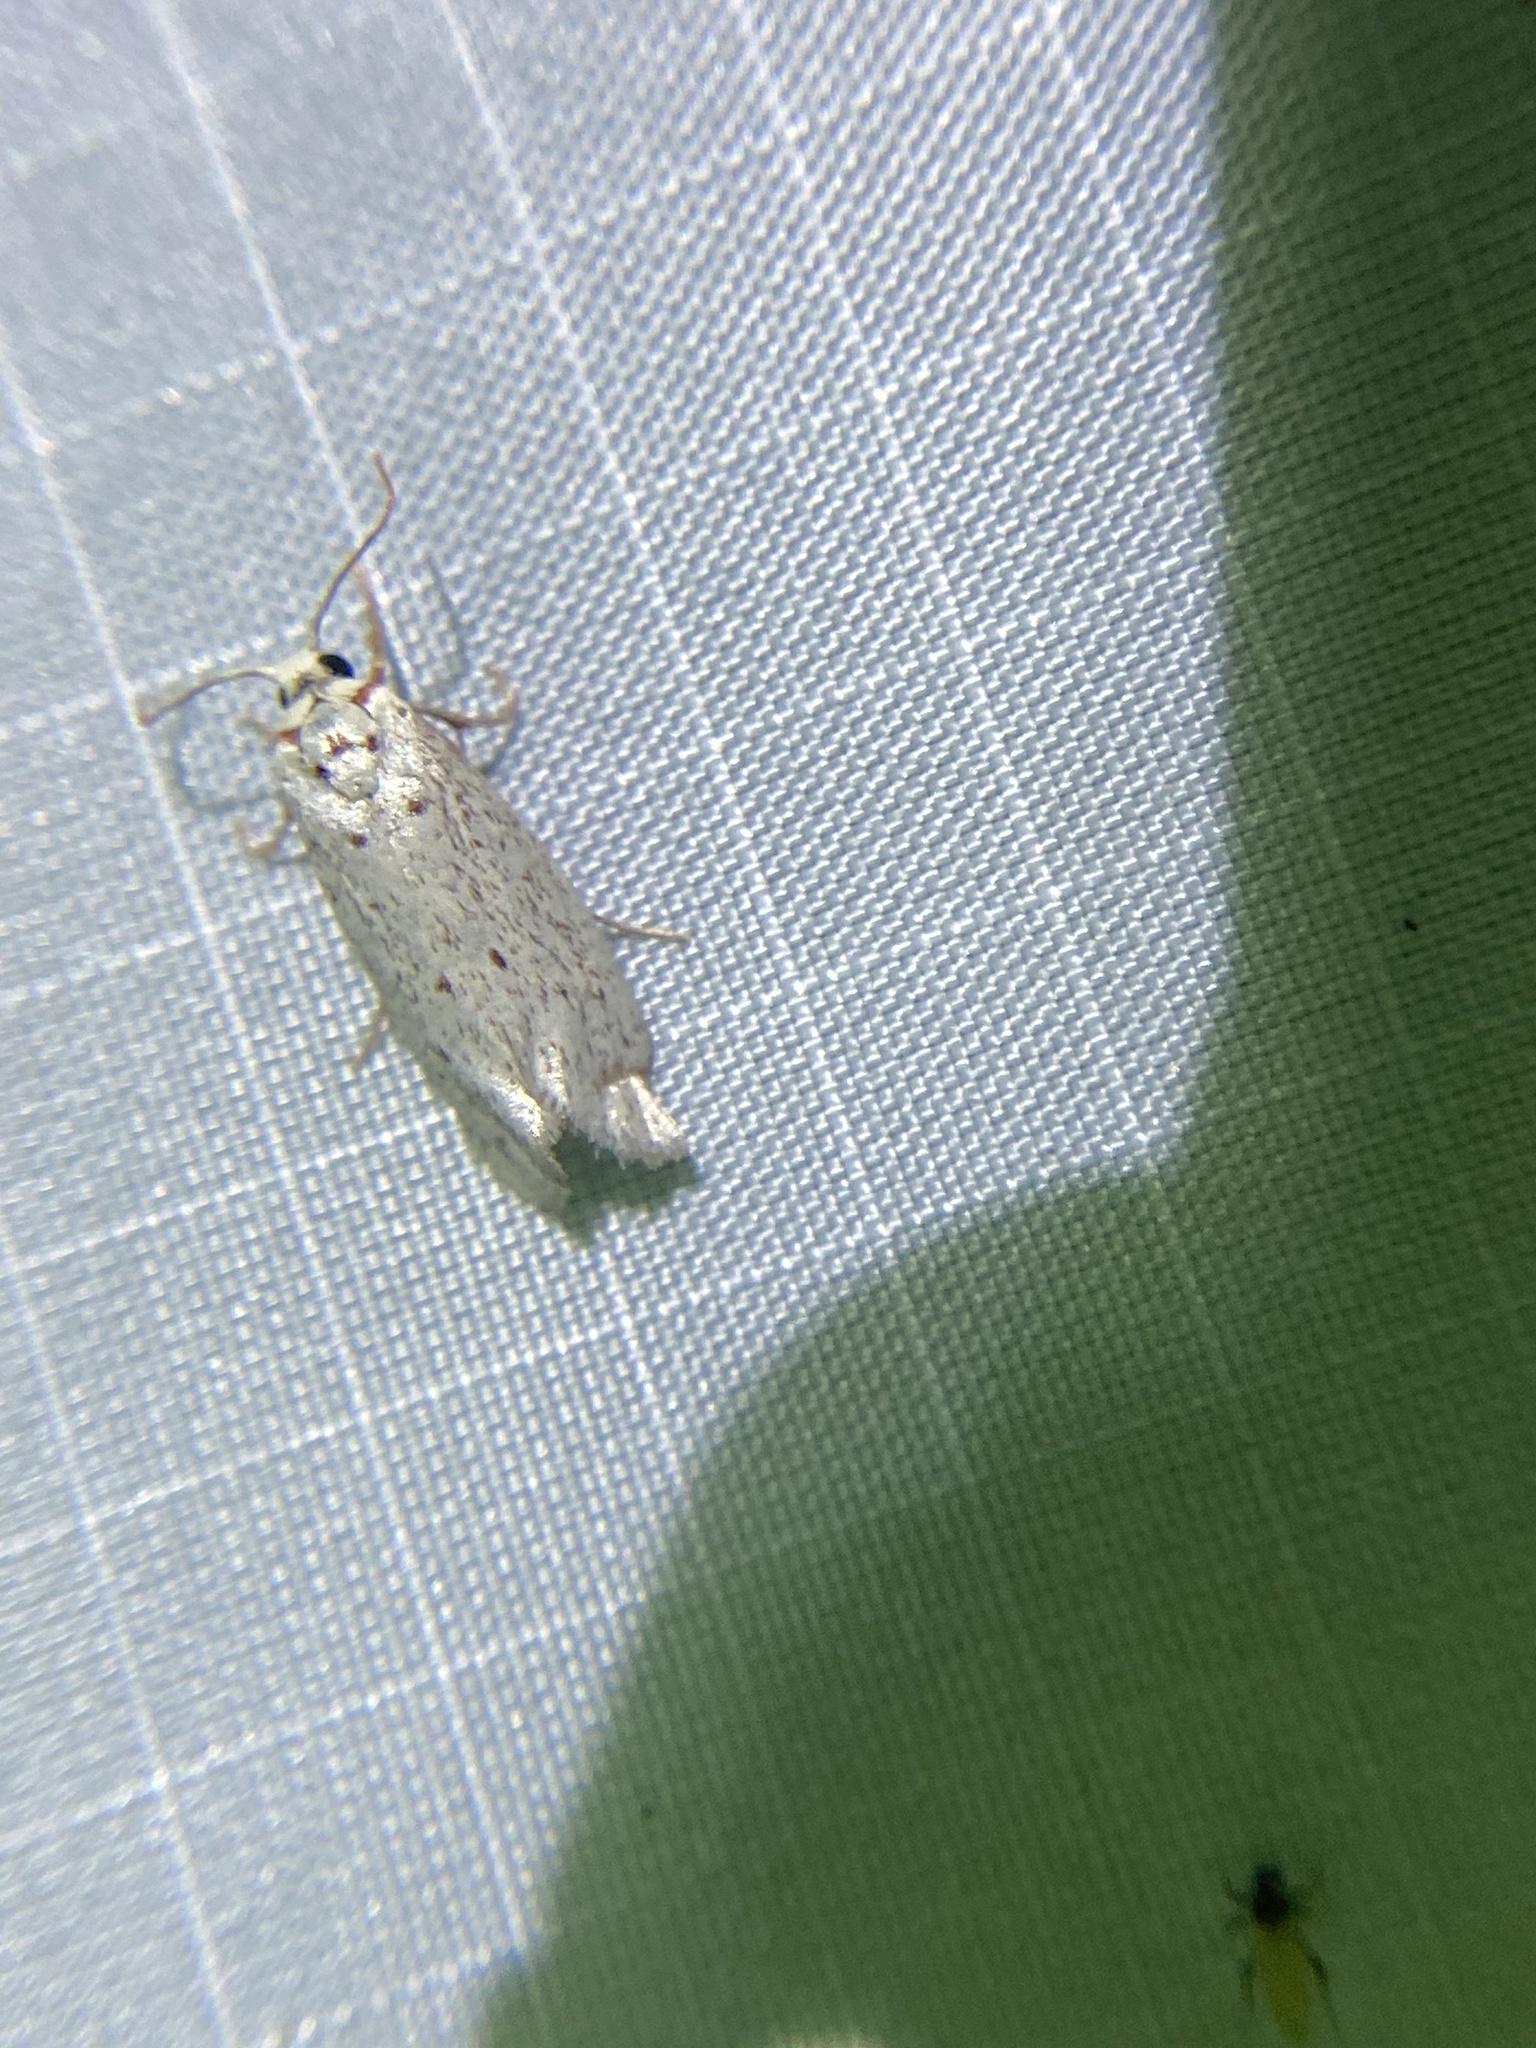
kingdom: Animalia
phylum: Arthropoda
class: Insecta
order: Lepidoptera
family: Lacturidae
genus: Lactura
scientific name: Lactura
